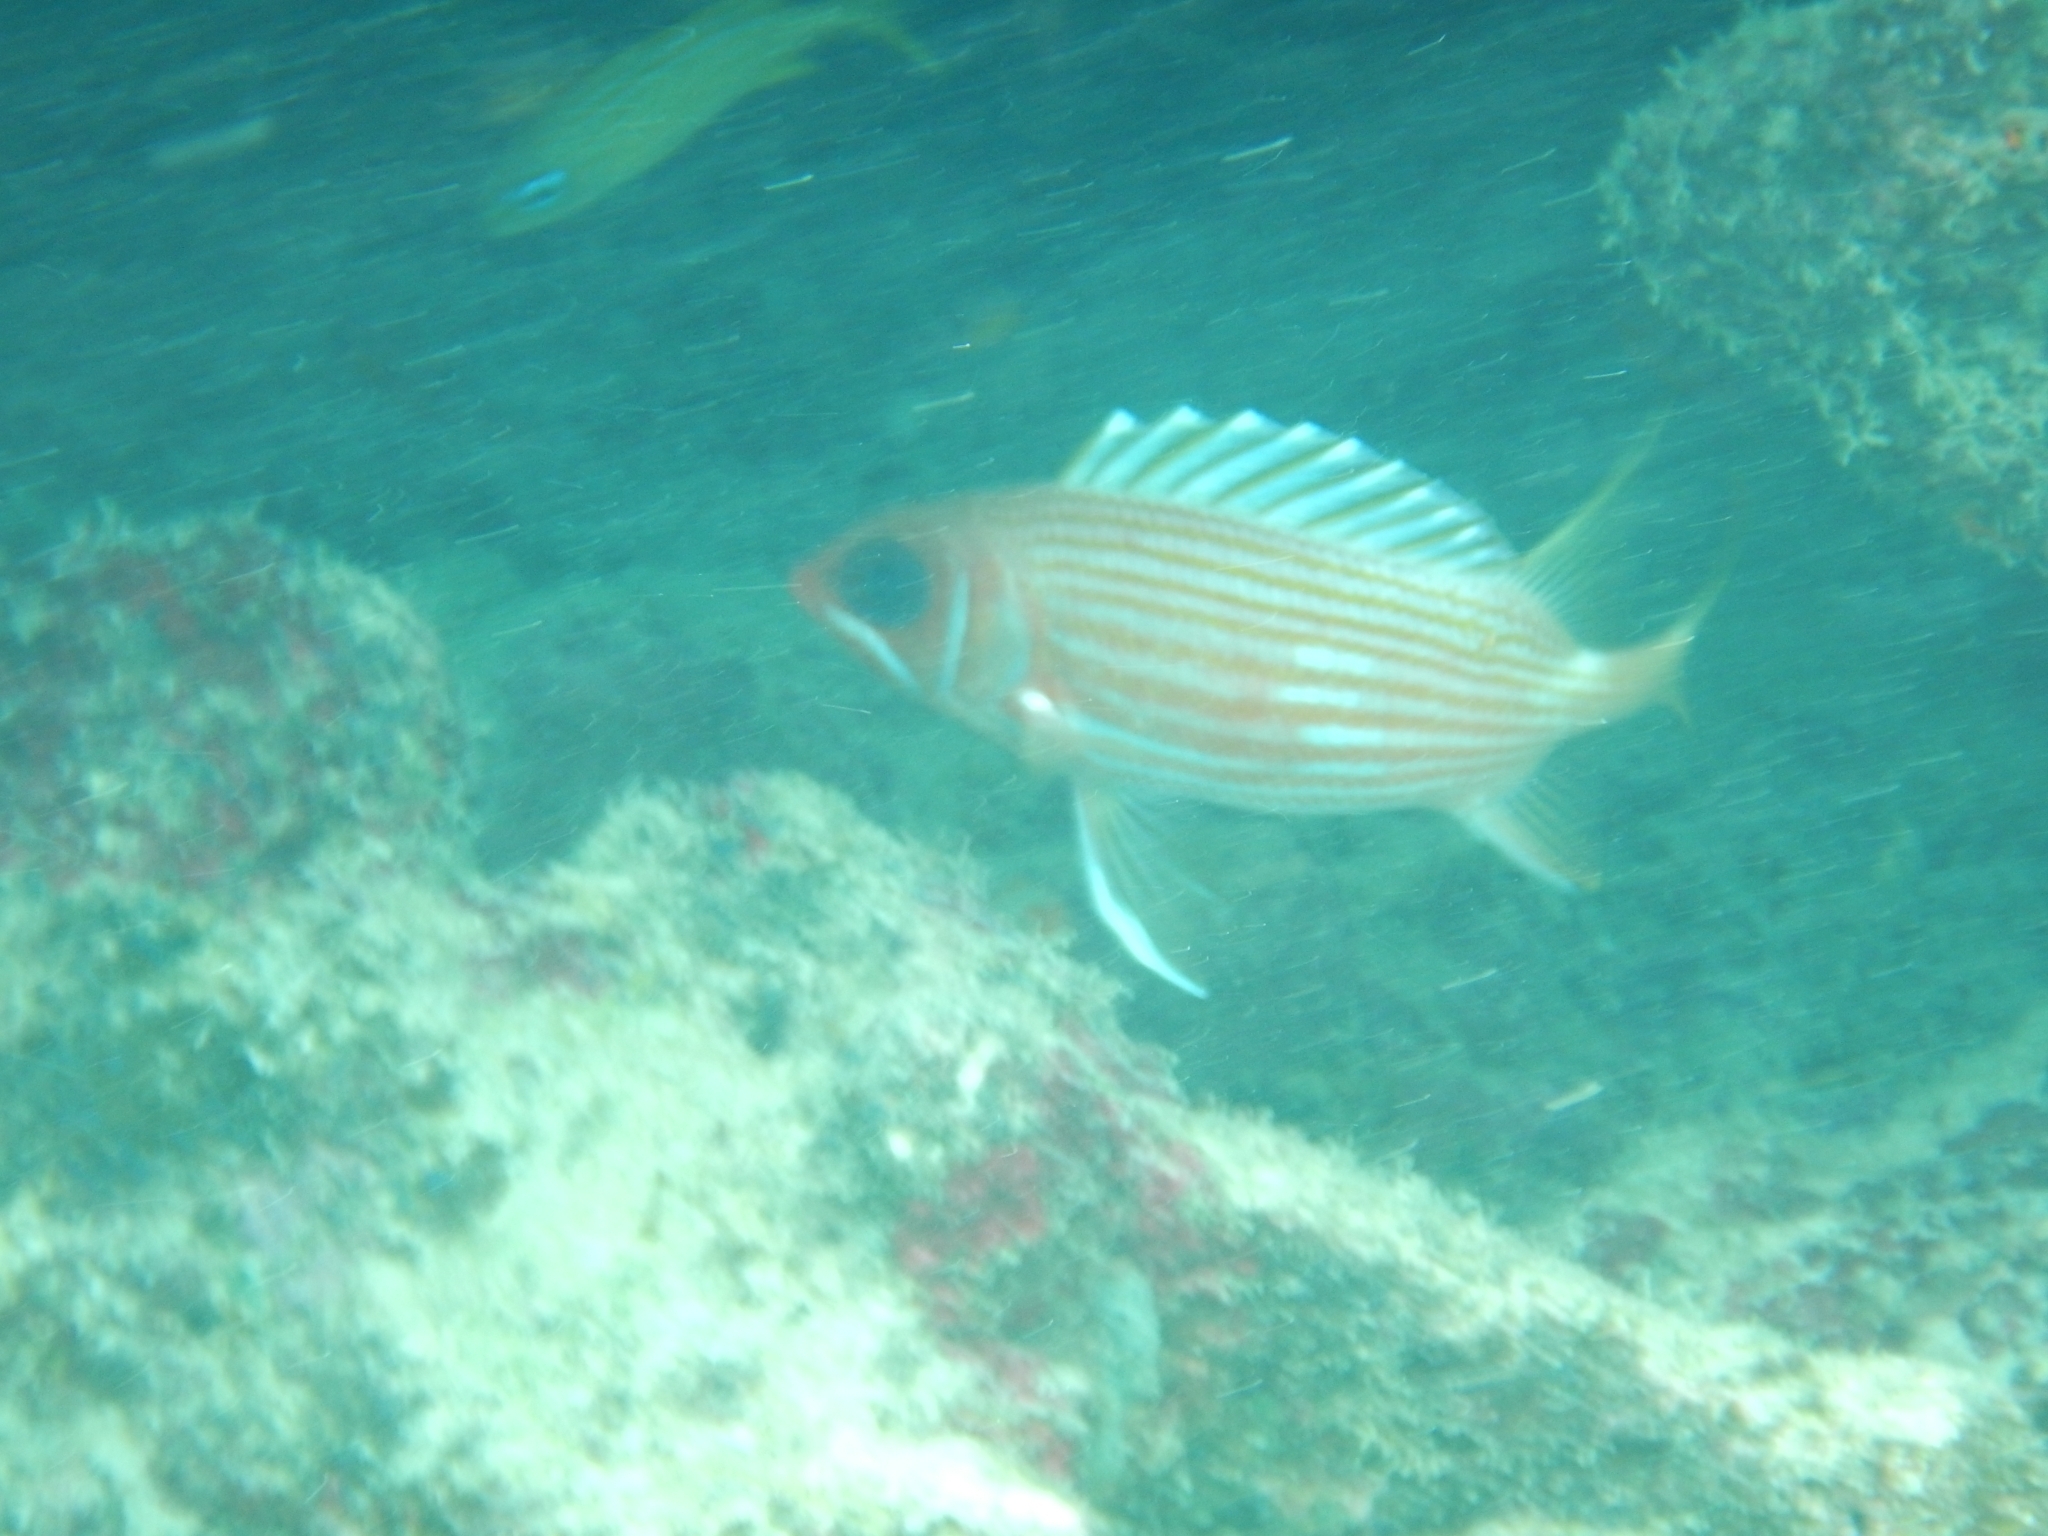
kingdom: Animalia
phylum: Chordata
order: Beryciformes
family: Holocentridae
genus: Holocentrus
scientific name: Holocentrus rufus
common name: Longspine squirrelfish
